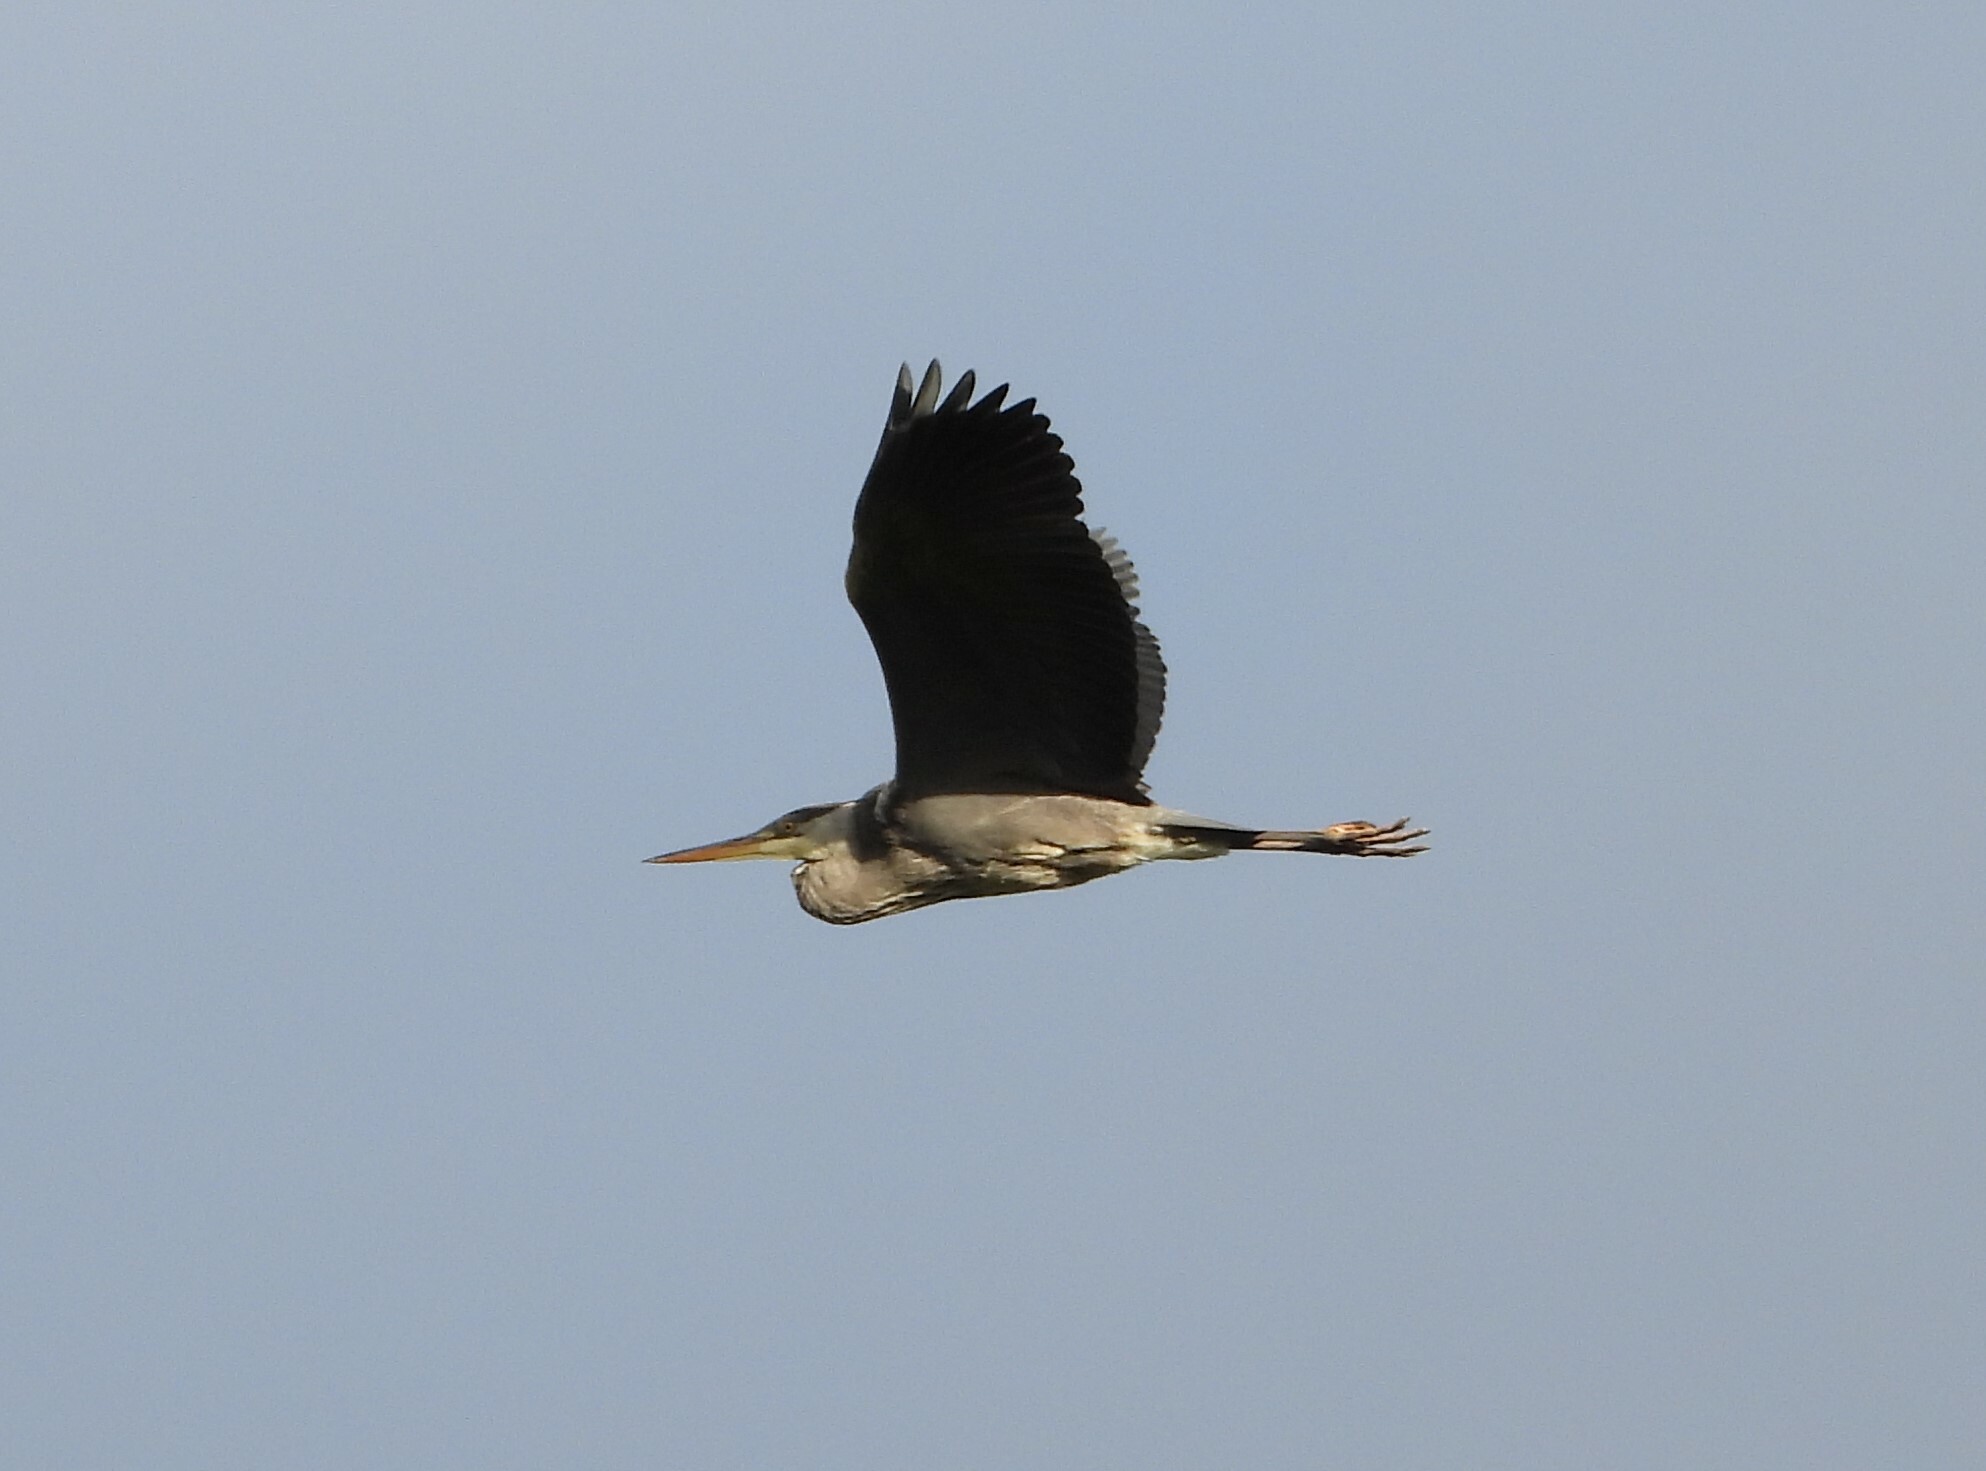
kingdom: Animalia
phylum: Chordata
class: Aves
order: Pelecaniformes
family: Ardeidae
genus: Ardea
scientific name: Ardea cinerea
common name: Grey heron
